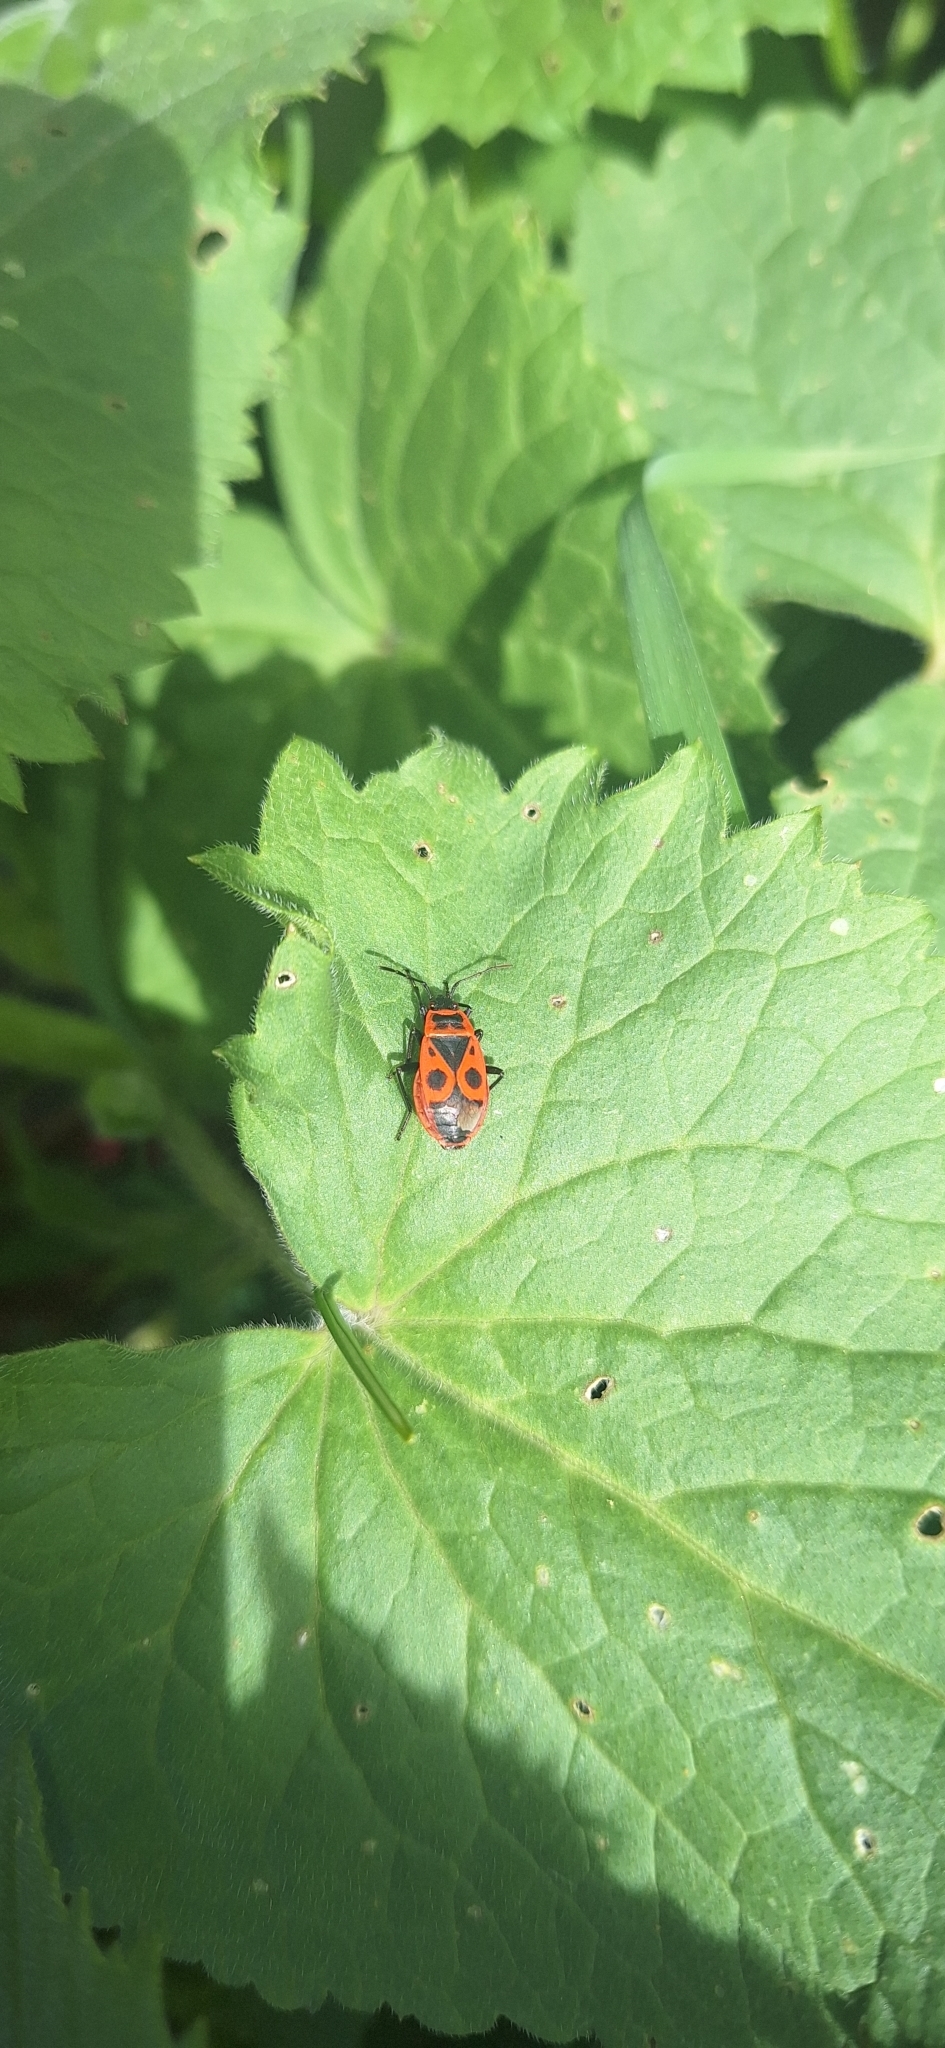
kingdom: Animalia
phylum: Arthropoda
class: Insecta
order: Hemiptera
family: Pyrrhocoridae
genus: Pyrrhocoris
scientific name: Pyrrhocoris apterus
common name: Firebug
